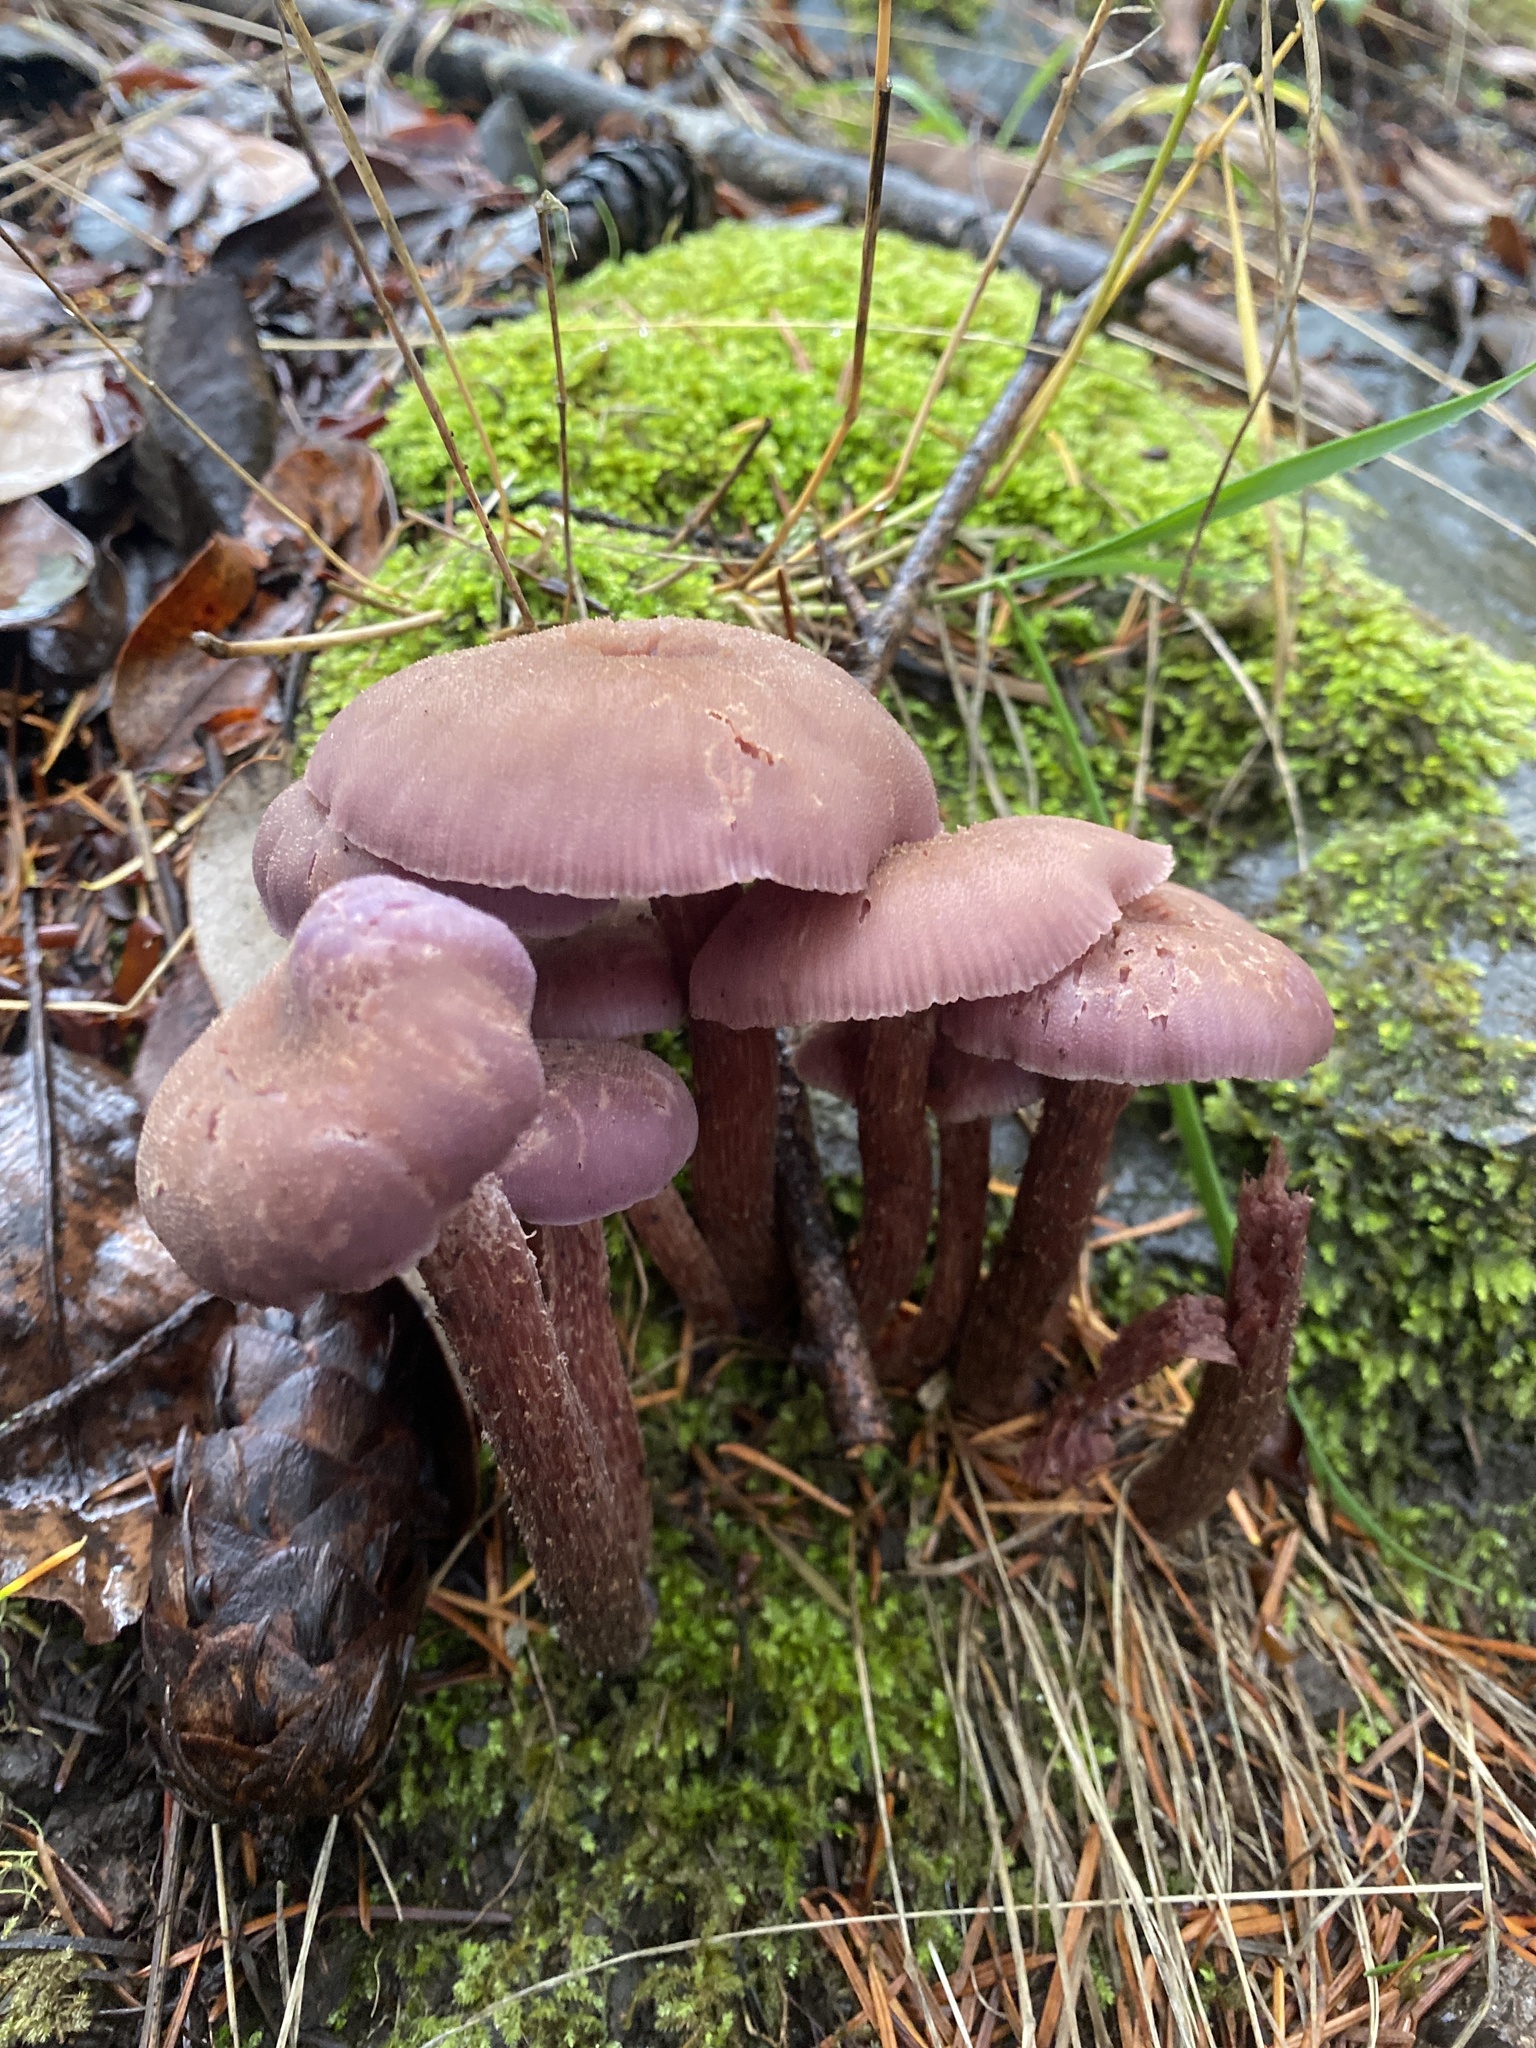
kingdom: Fungi
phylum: Basidiomycota
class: Agaricomycetes
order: Agaricales
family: Hydnangiaceae
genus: Laccaria
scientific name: Laccaria amethysteo-occidentalis
